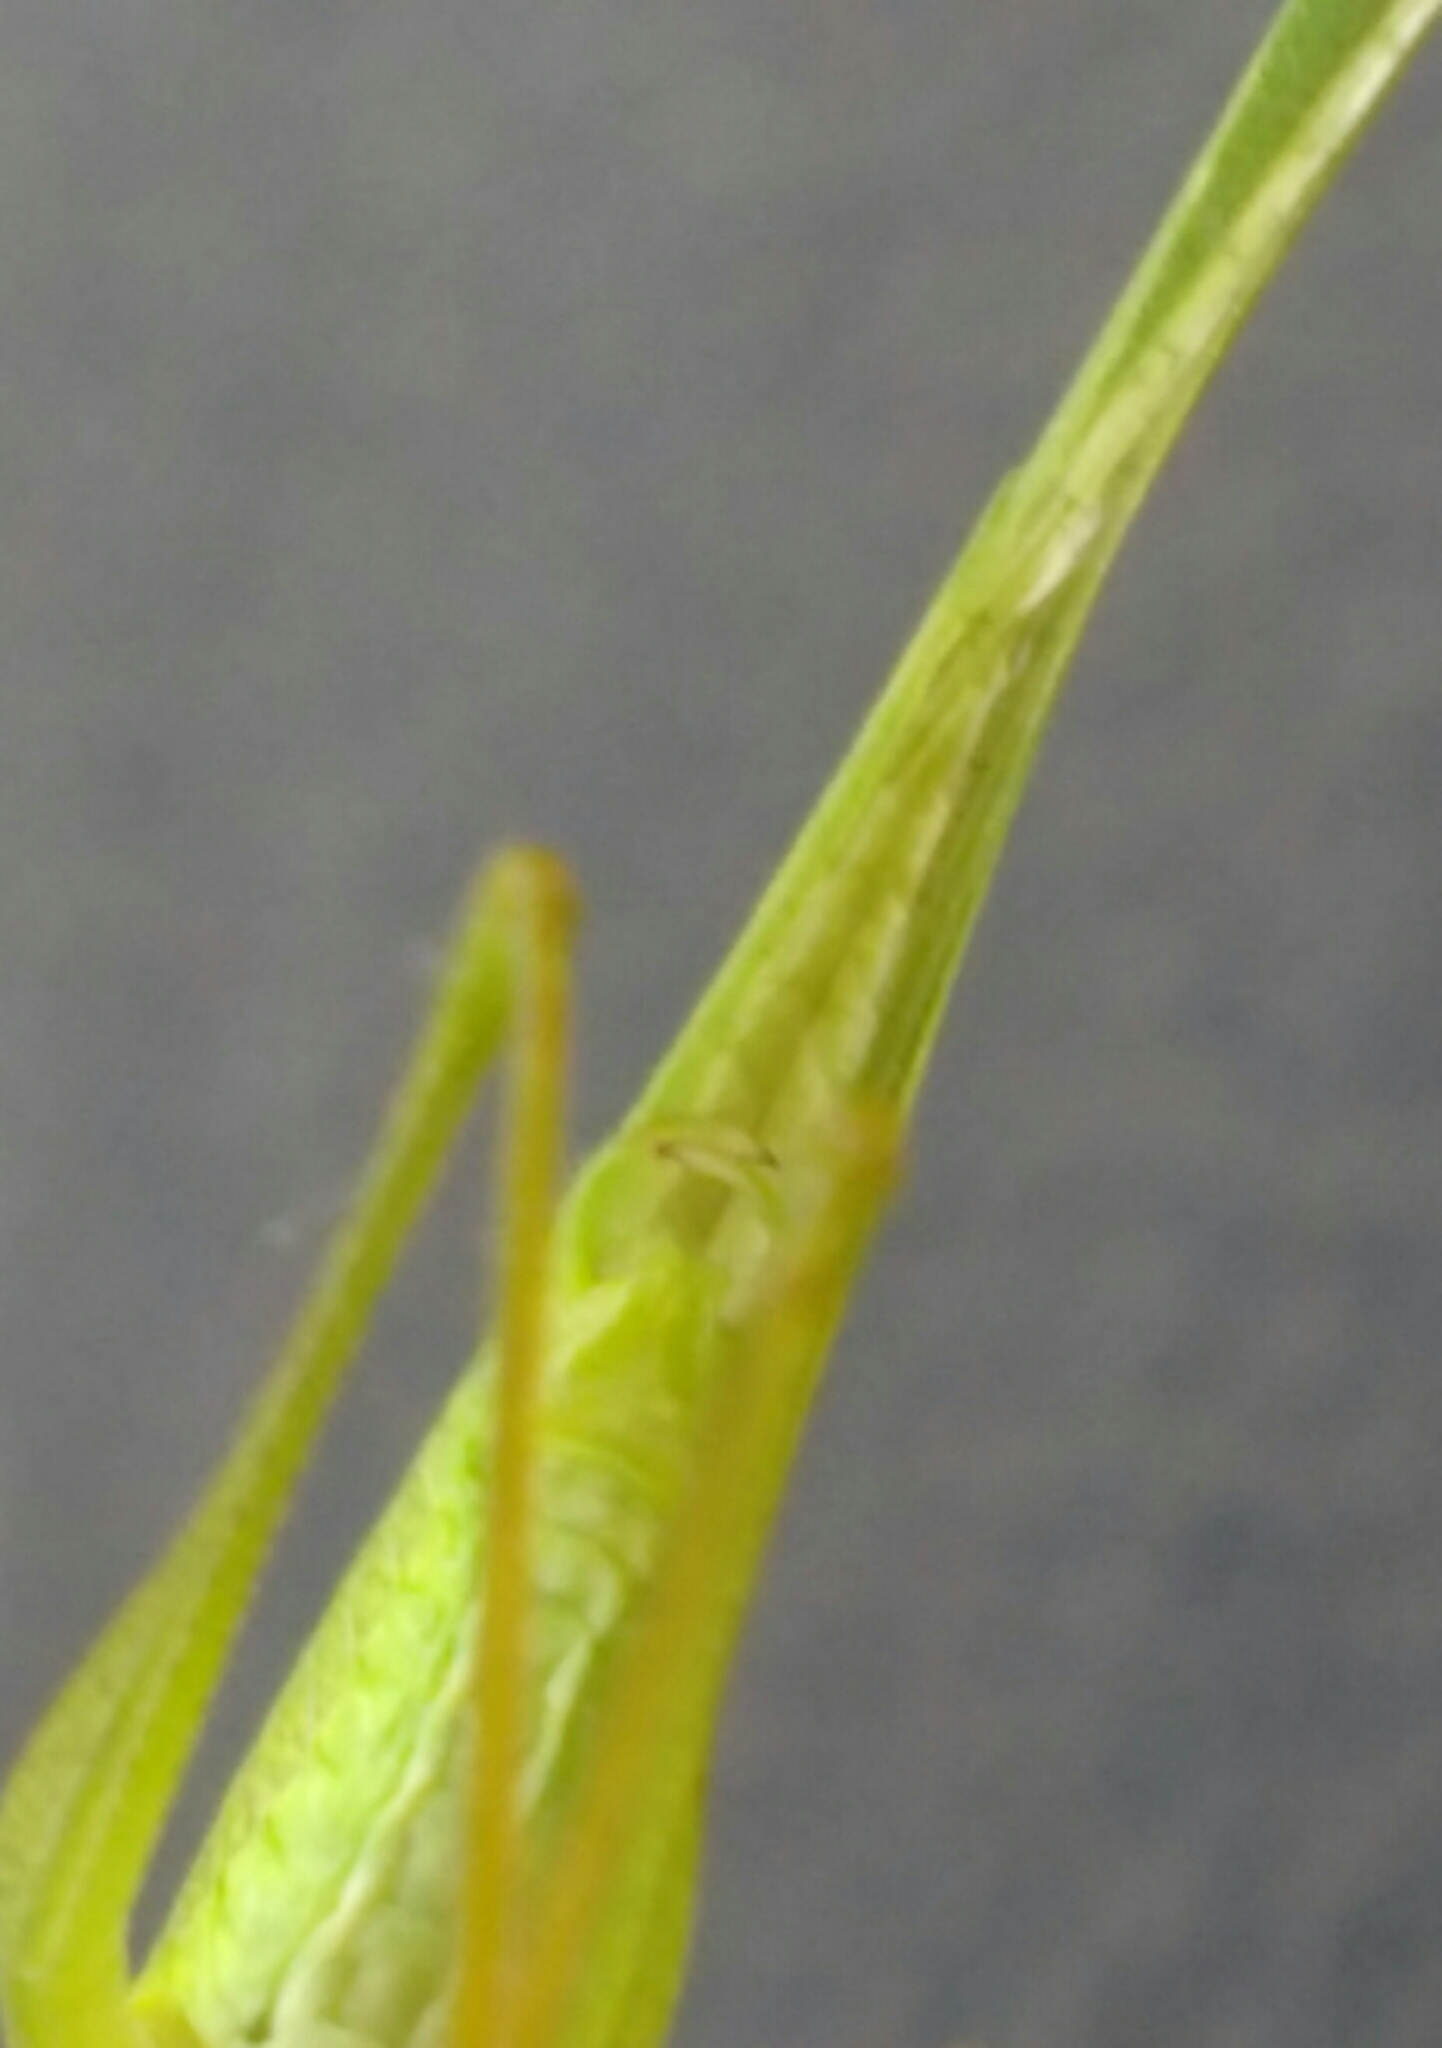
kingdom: Animalia
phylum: Arthropoda
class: Insecta
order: Orthoptera
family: Tettigoniidae
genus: Phaneroptera
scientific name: Phaneroptera nana
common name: Southern sickle bush-cricket
